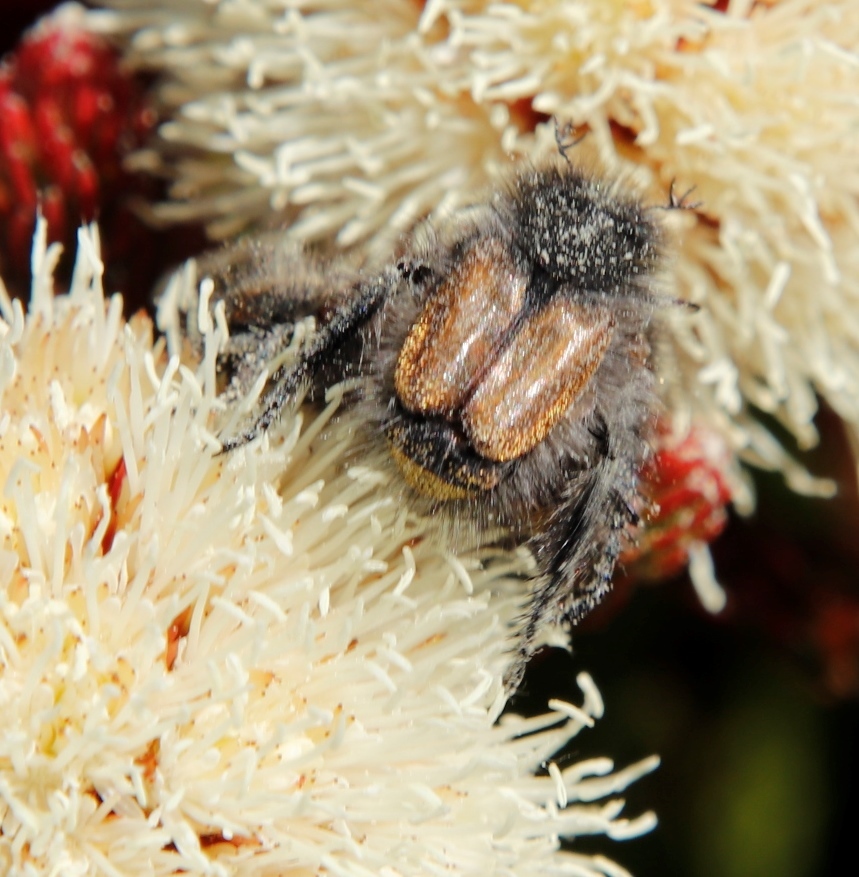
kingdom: Plantae
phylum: Tracheophyta
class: Magnoliopsida
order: Bruniales
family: Bruniaceae
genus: Brunia
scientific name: Brunia fragarioides
